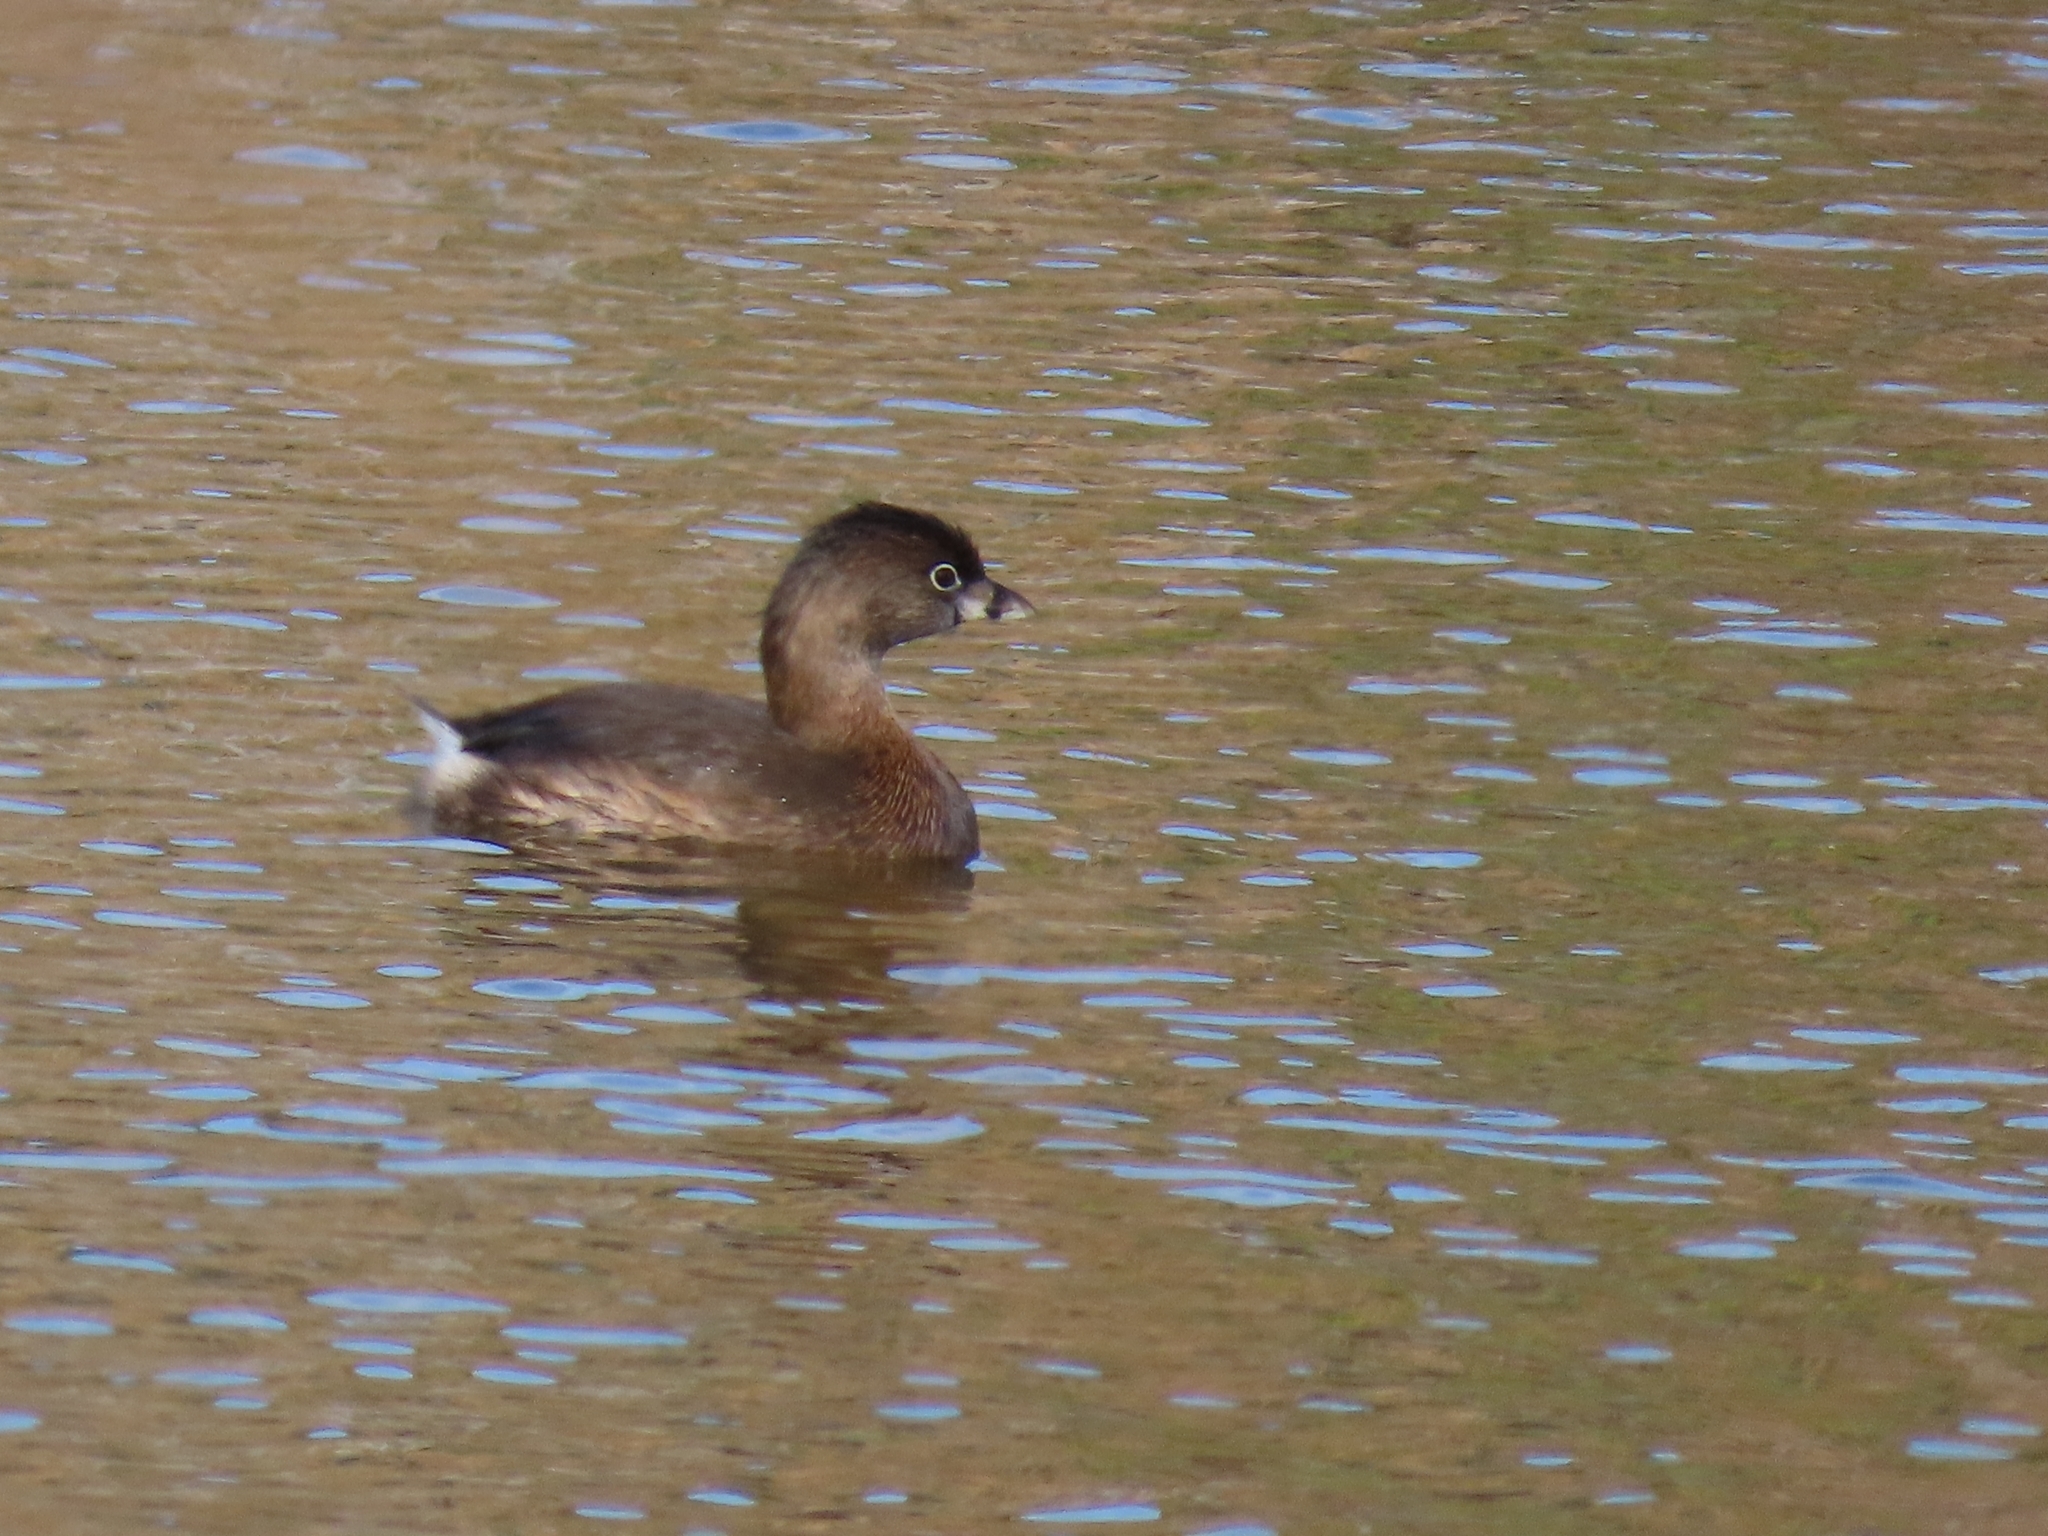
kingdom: Animalia
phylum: Chordata
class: Aves
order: Podicipediformes
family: Podicipedidae
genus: Podilymbus
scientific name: Podilymbus podiceps
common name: Pied-billed grebe
